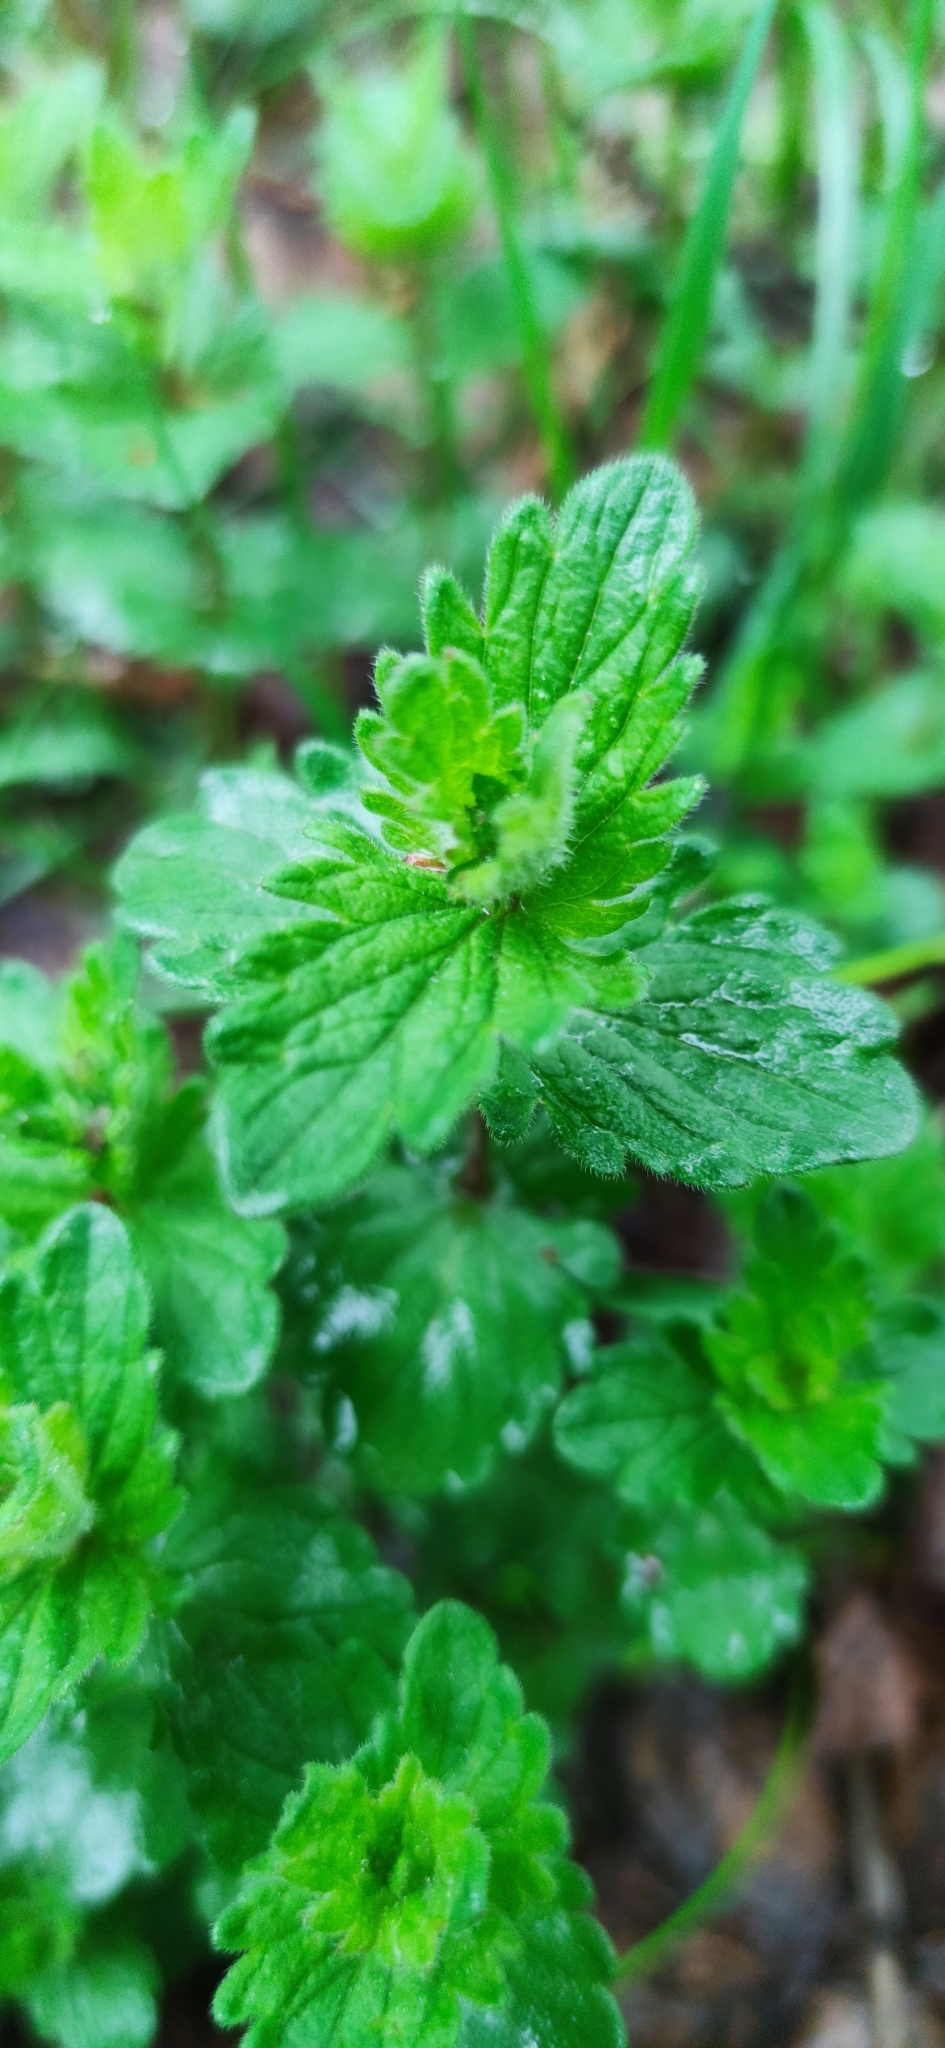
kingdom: Plantae
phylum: Tracheophyta
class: Magnoliopsida
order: Lamiales
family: Plantaginaceae
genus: Veronica
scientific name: Veronica chamaedrys
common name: Germander speedwell
